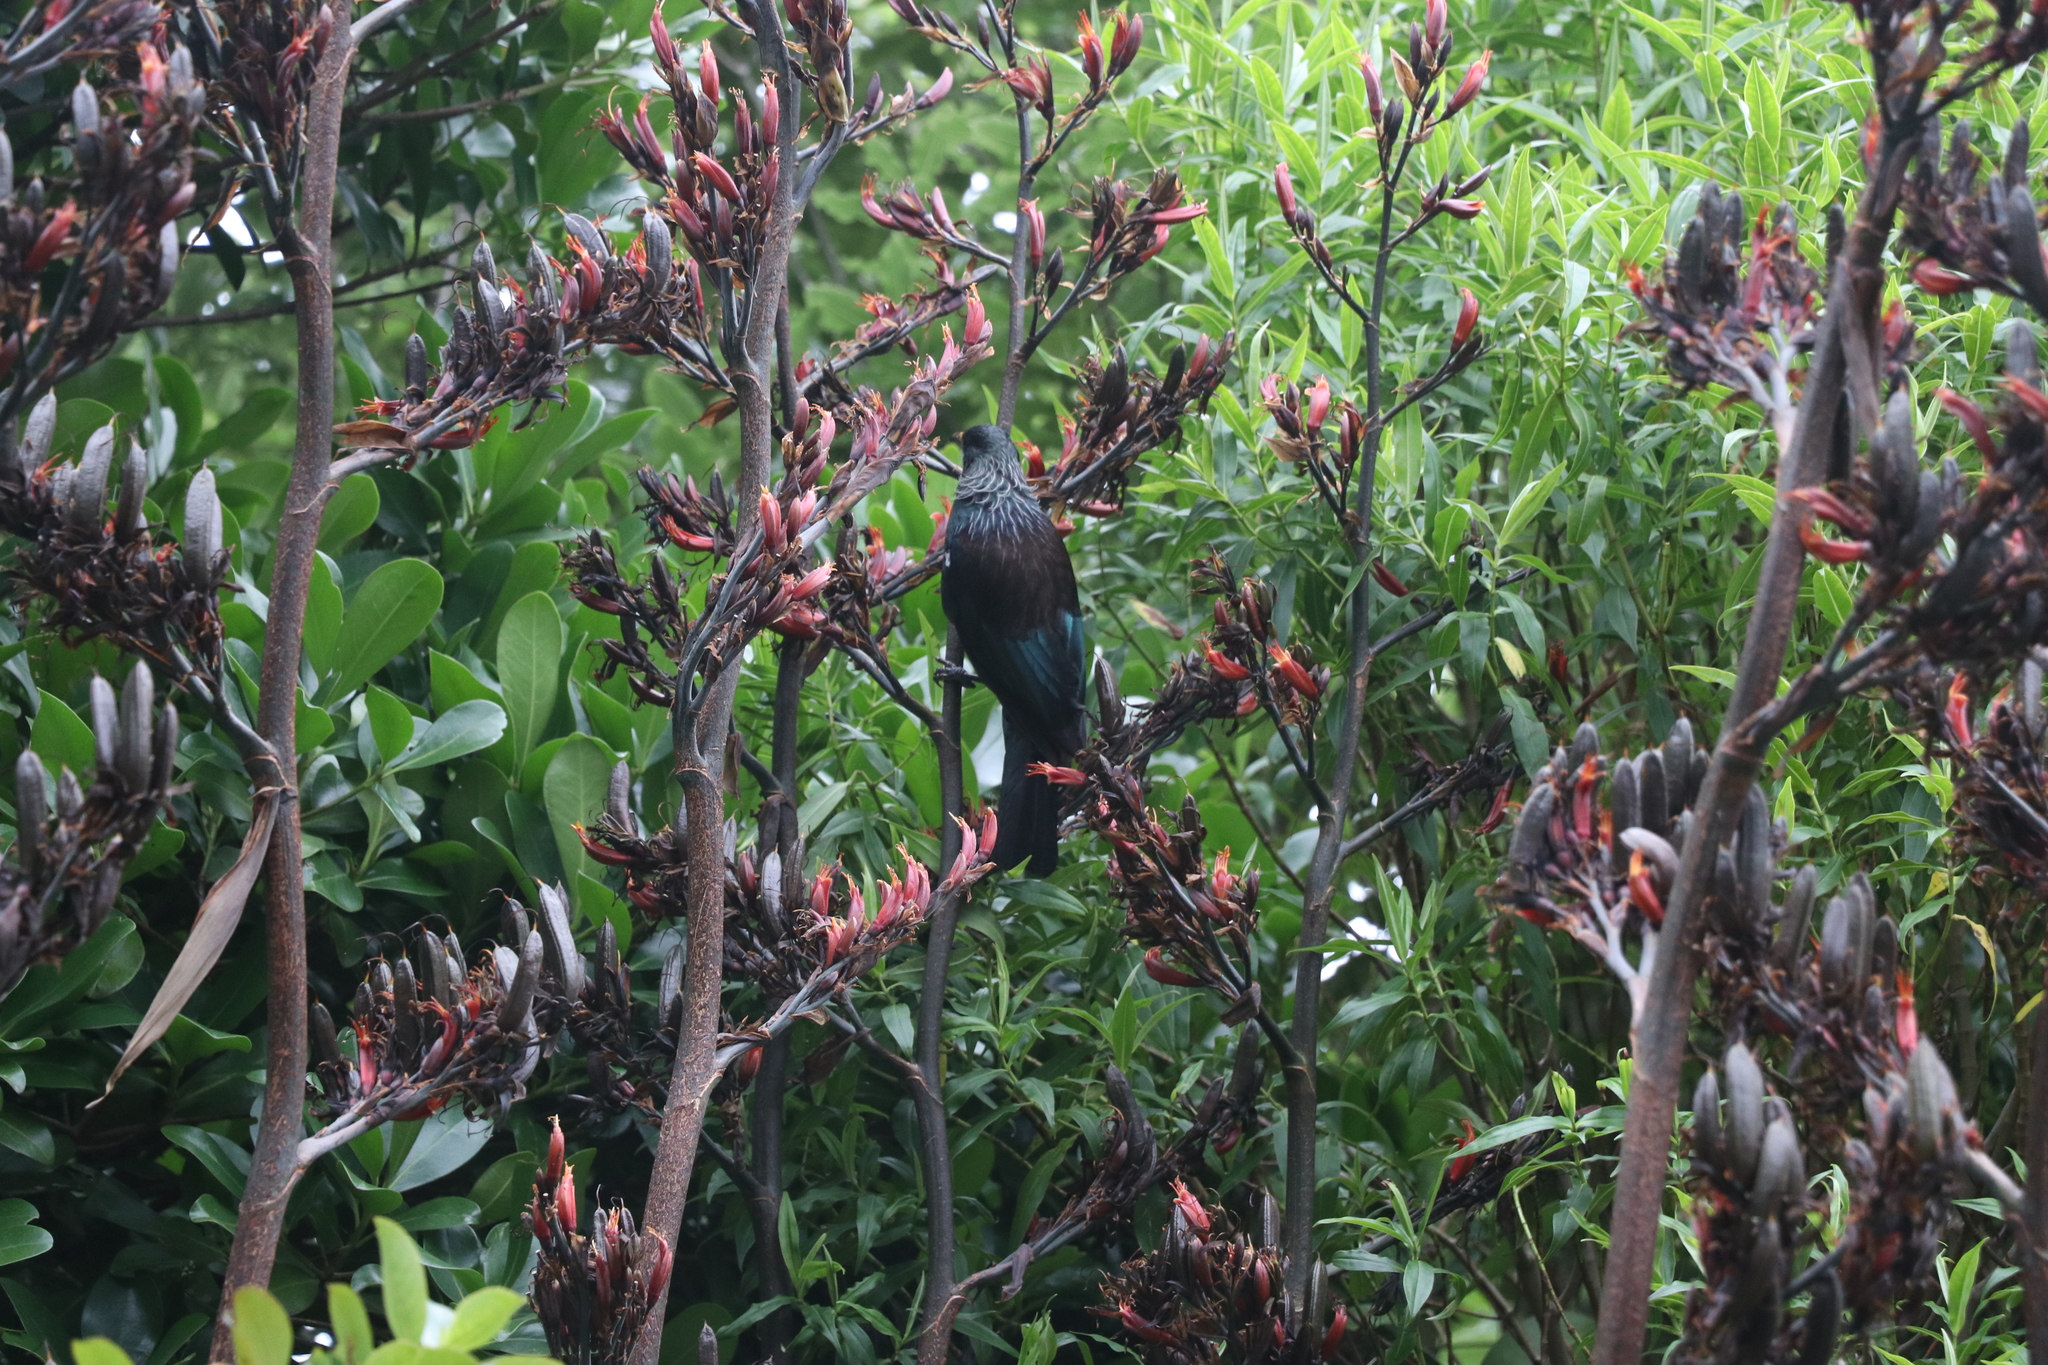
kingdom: Animalia
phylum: Chordata
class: Aves
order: Passeriformes
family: Meliphagidae
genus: Prosthemadera
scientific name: Prosthemadera novaeseelandiae
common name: Tui
